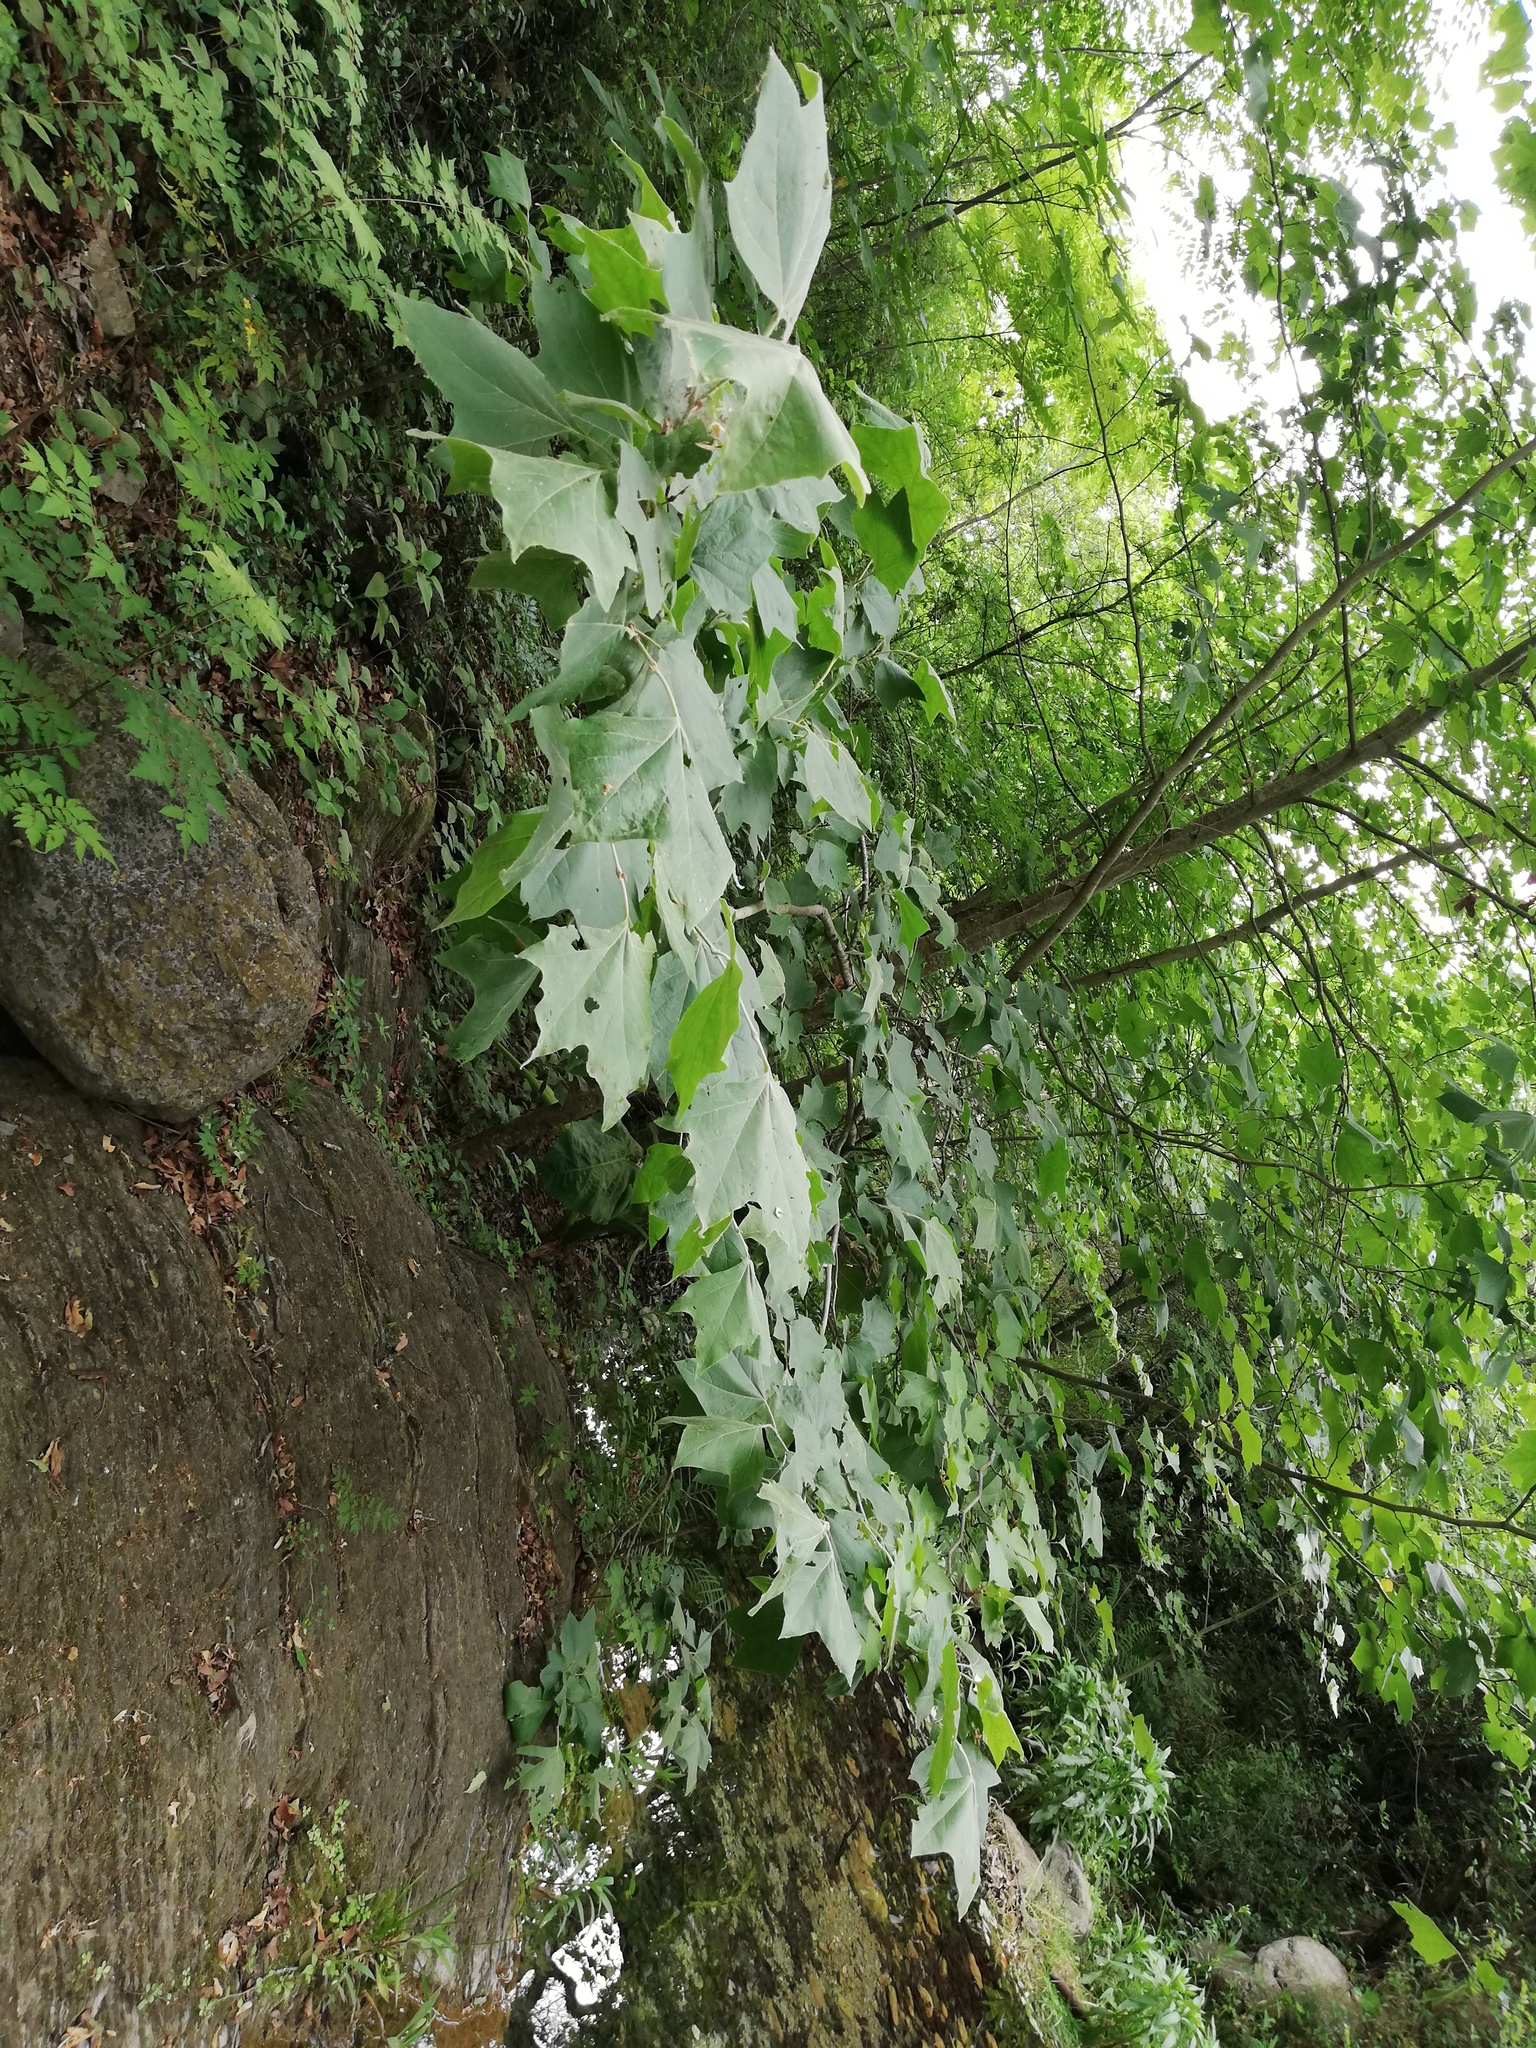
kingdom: Plantae
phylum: Tracheophyta
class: Magnoliopsida
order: Proteales
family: Platanaceae
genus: Platanus
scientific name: Platanus rzedowskii
